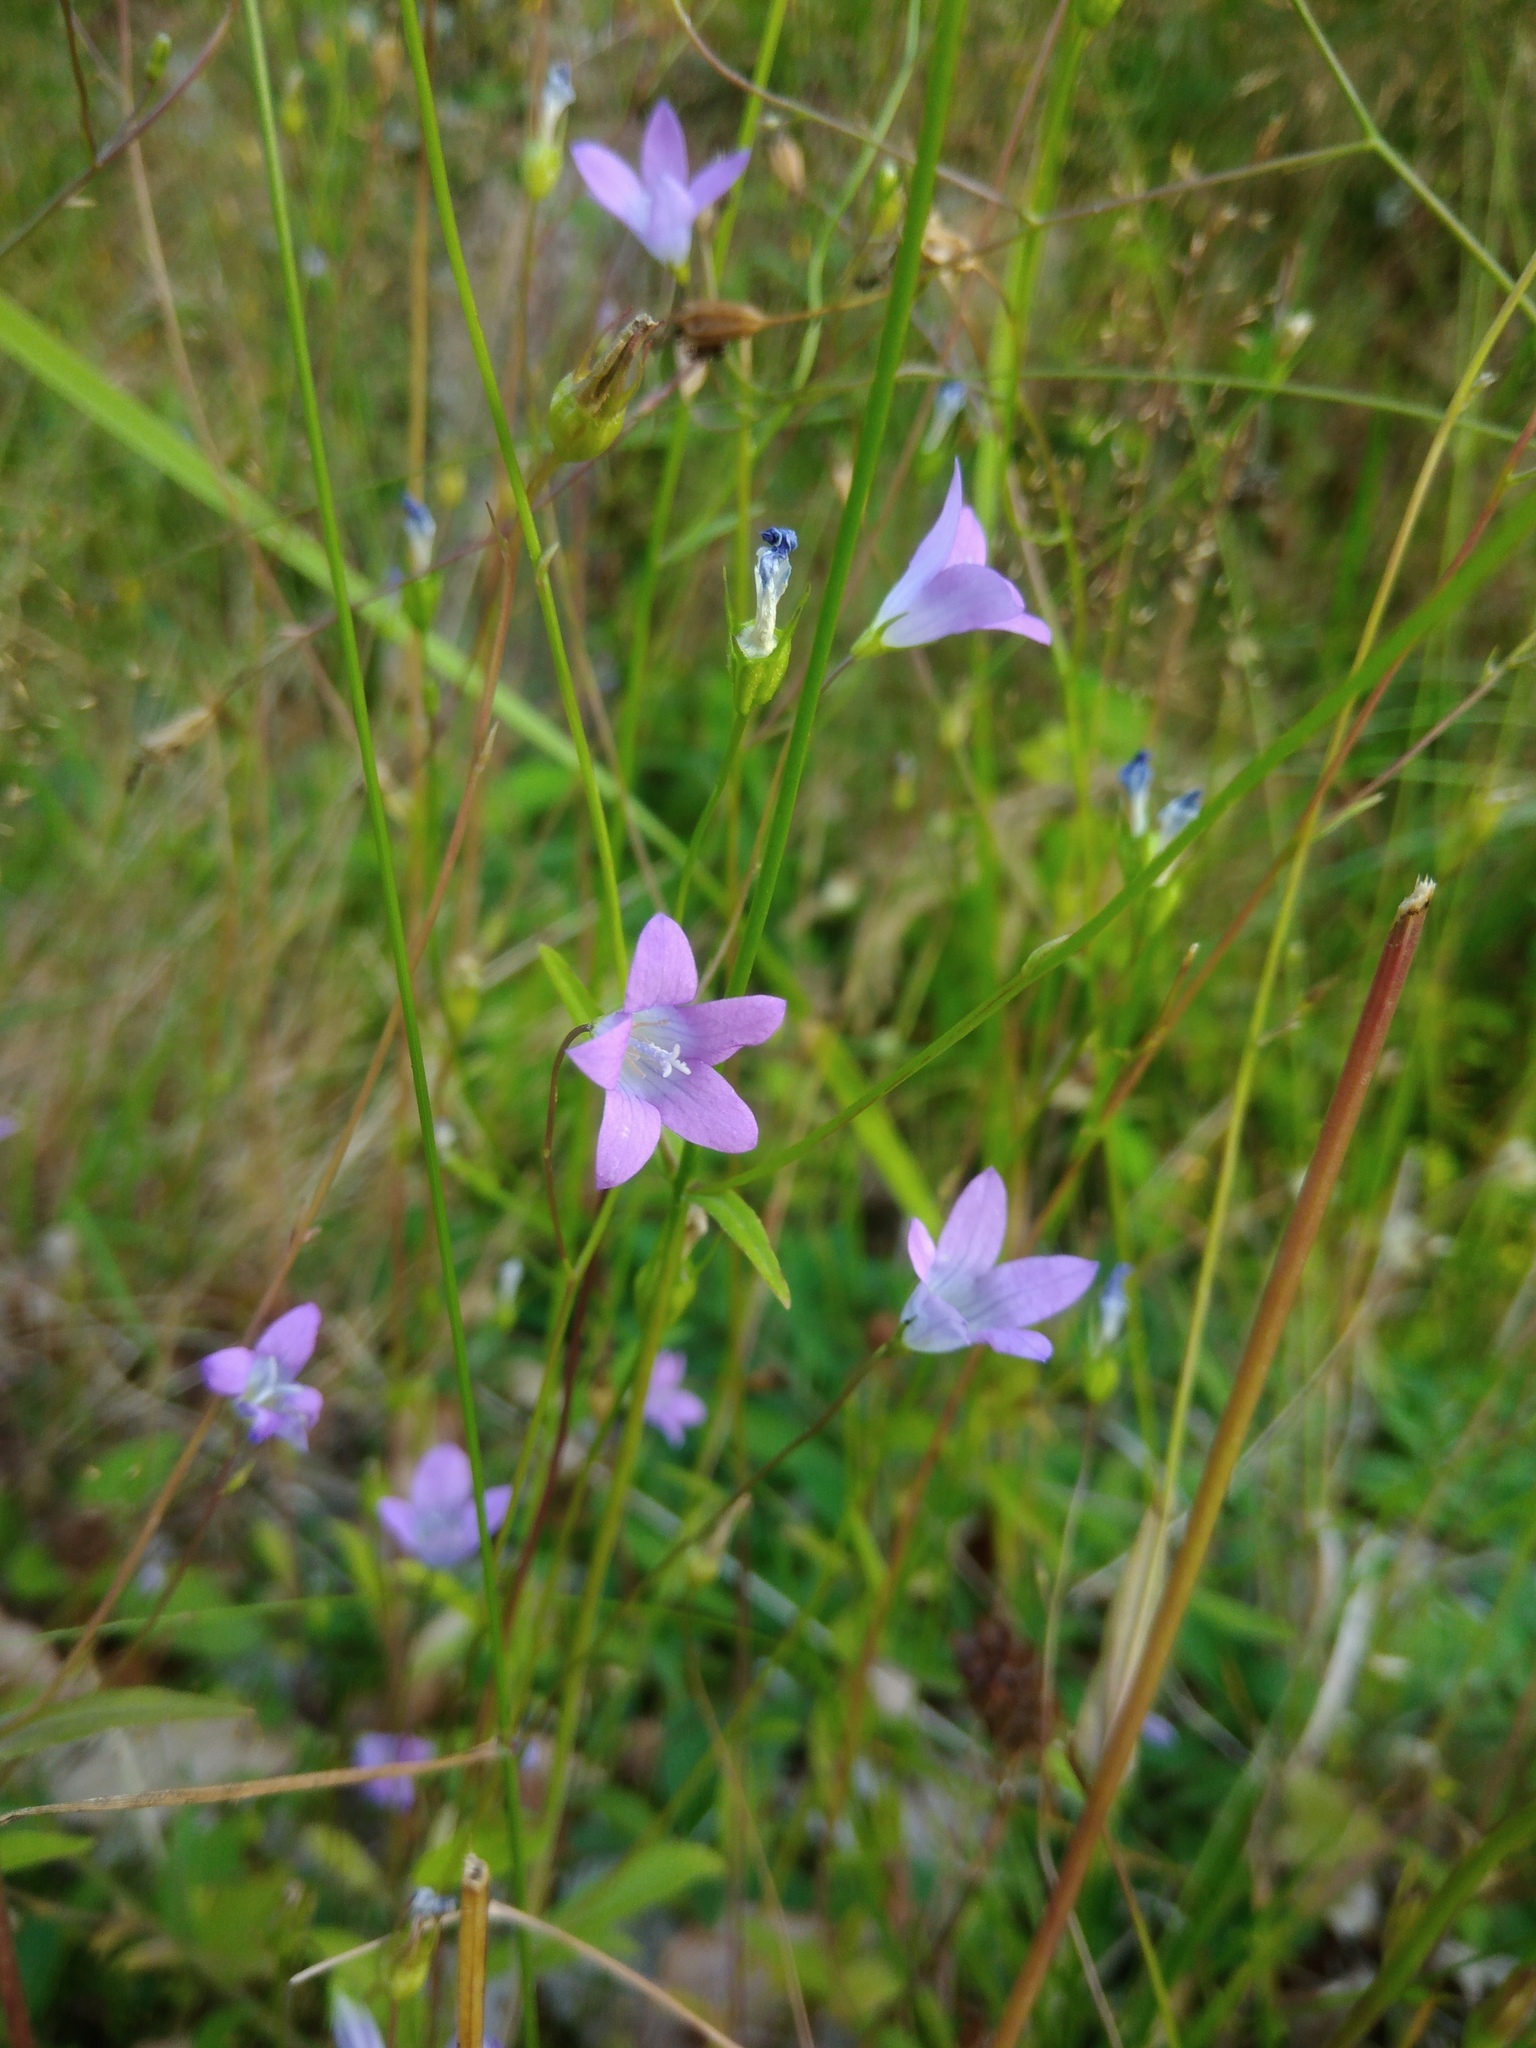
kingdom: Plantae
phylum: Tracheophyta
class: Magnoliopsida
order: Asterales
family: Campanulaceae
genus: Campanula
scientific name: Campanula patula
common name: Spreading bellflower
